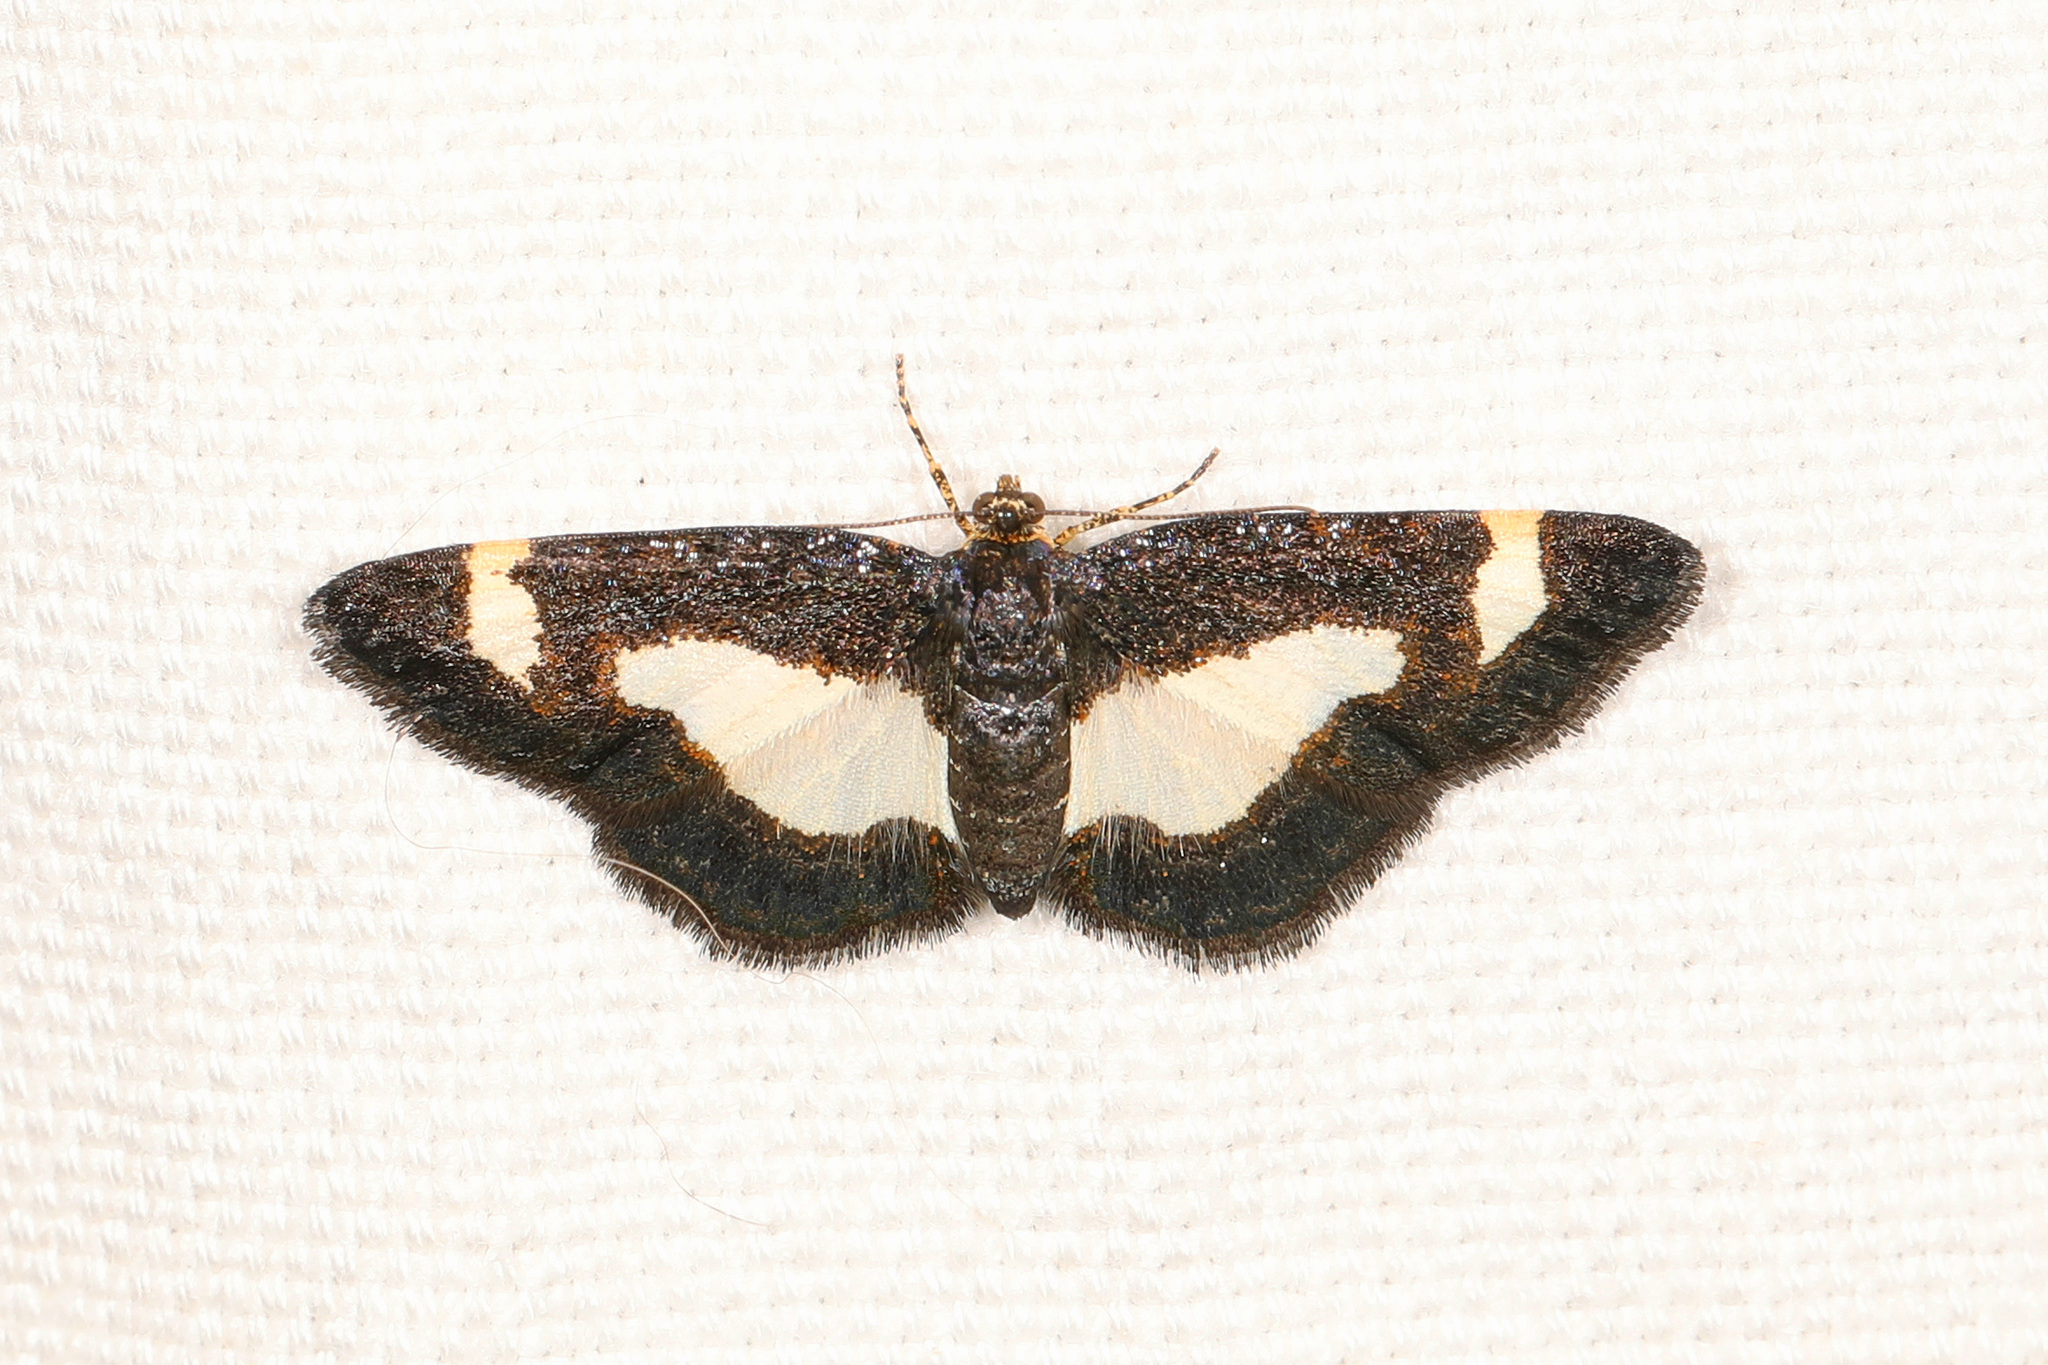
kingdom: Animalia
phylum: Arthropoda
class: Insecta
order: Lepidoptera
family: Geometridae
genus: Heliomata
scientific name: Heliomata cycladata
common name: Common spring moth
